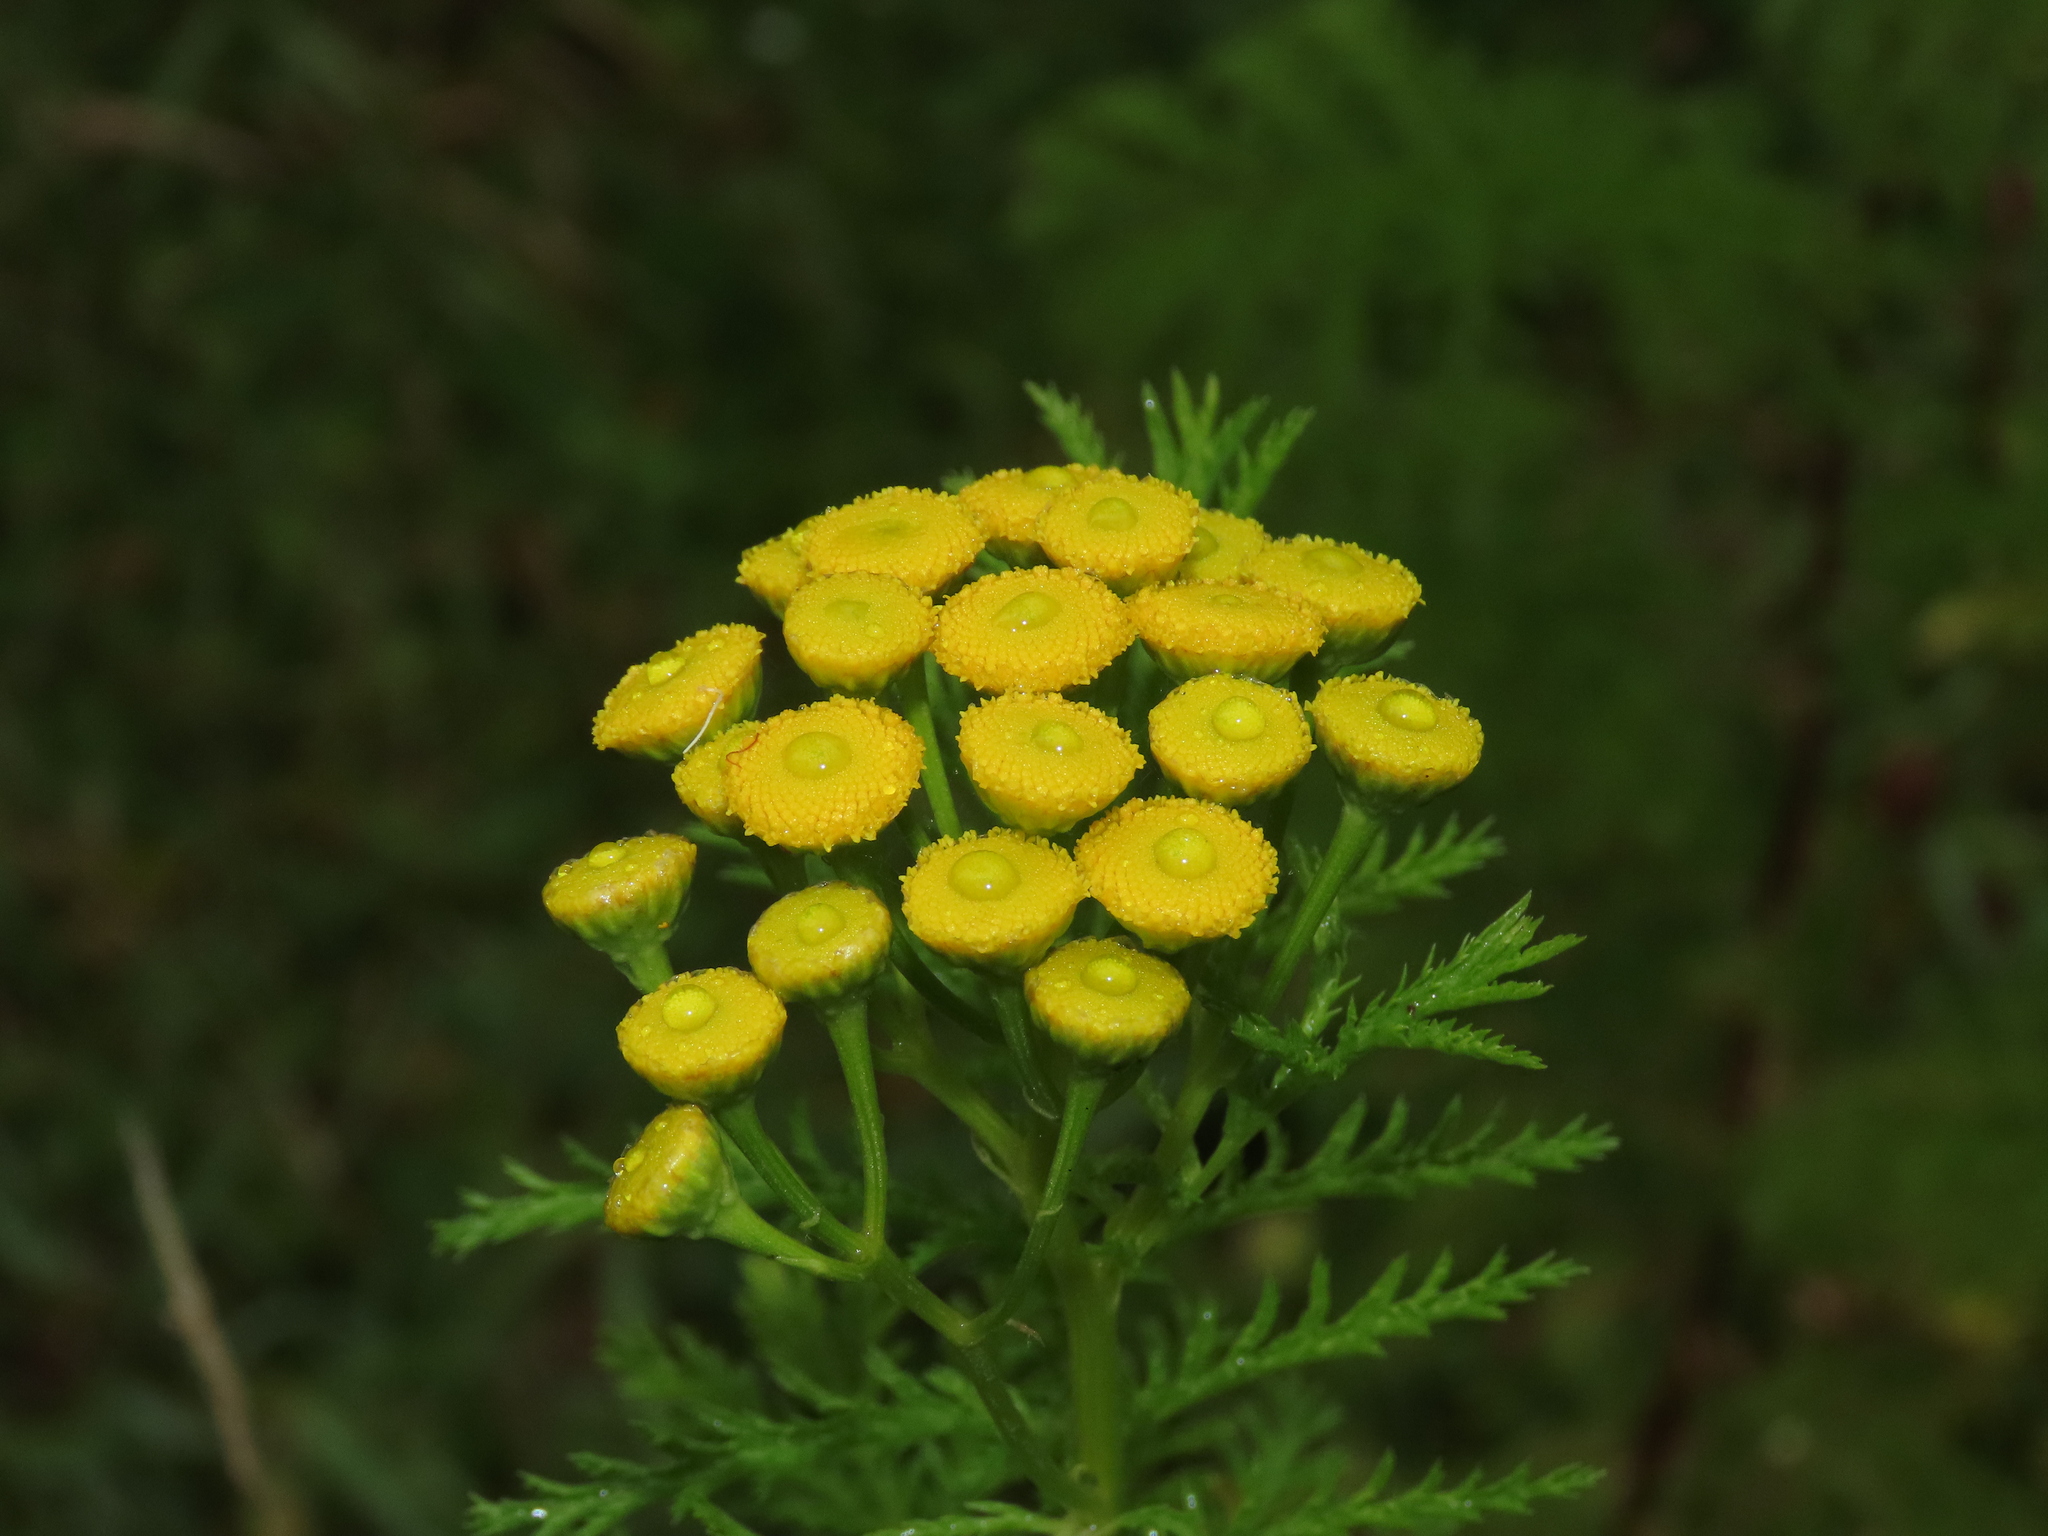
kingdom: Plantae
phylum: Tracheophyta
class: Magnoliopsida
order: Asterales
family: Asteraceae
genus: Tanacetum
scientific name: Tanacetum vulgare
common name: Common tansy
